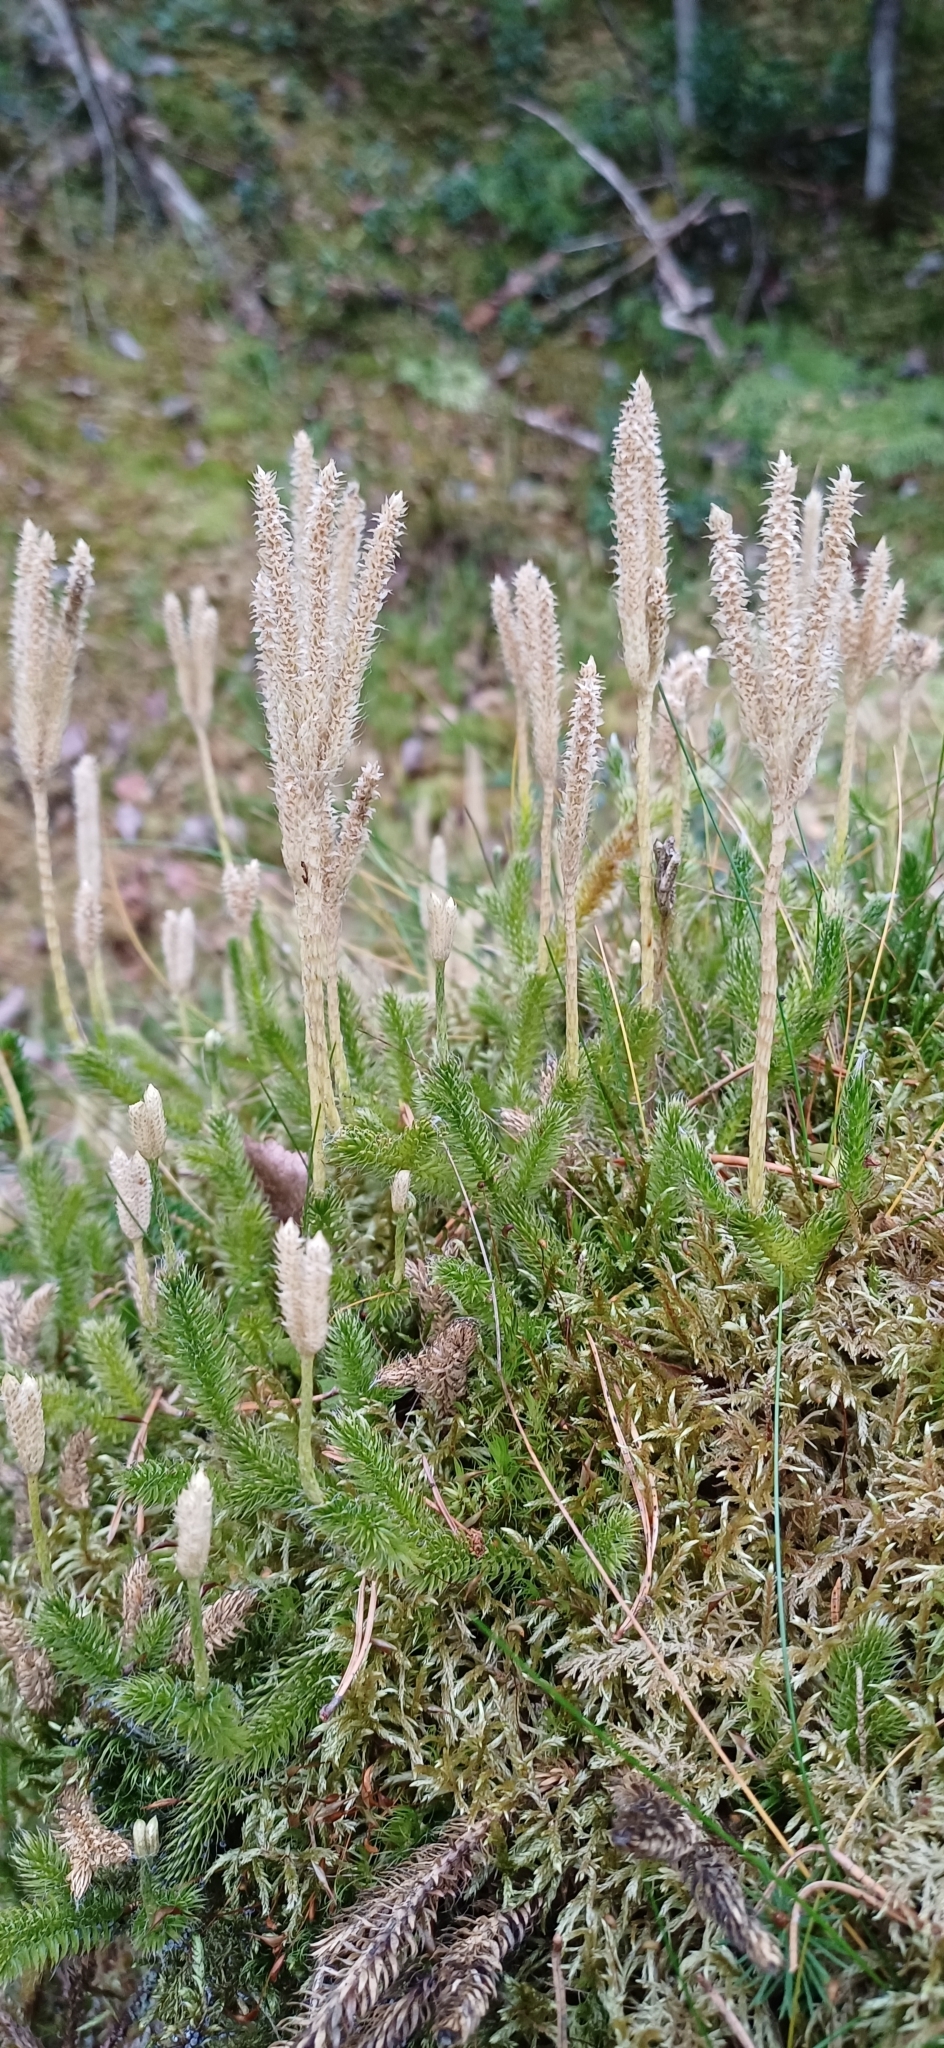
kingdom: Plantae
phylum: Tracheophyta
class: Lycopodiopsida
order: Lycopodiales
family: Lycopodiaceae
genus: Lycopodium
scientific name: Lycopodium clavatum
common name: Stag's-horn clubmoss
